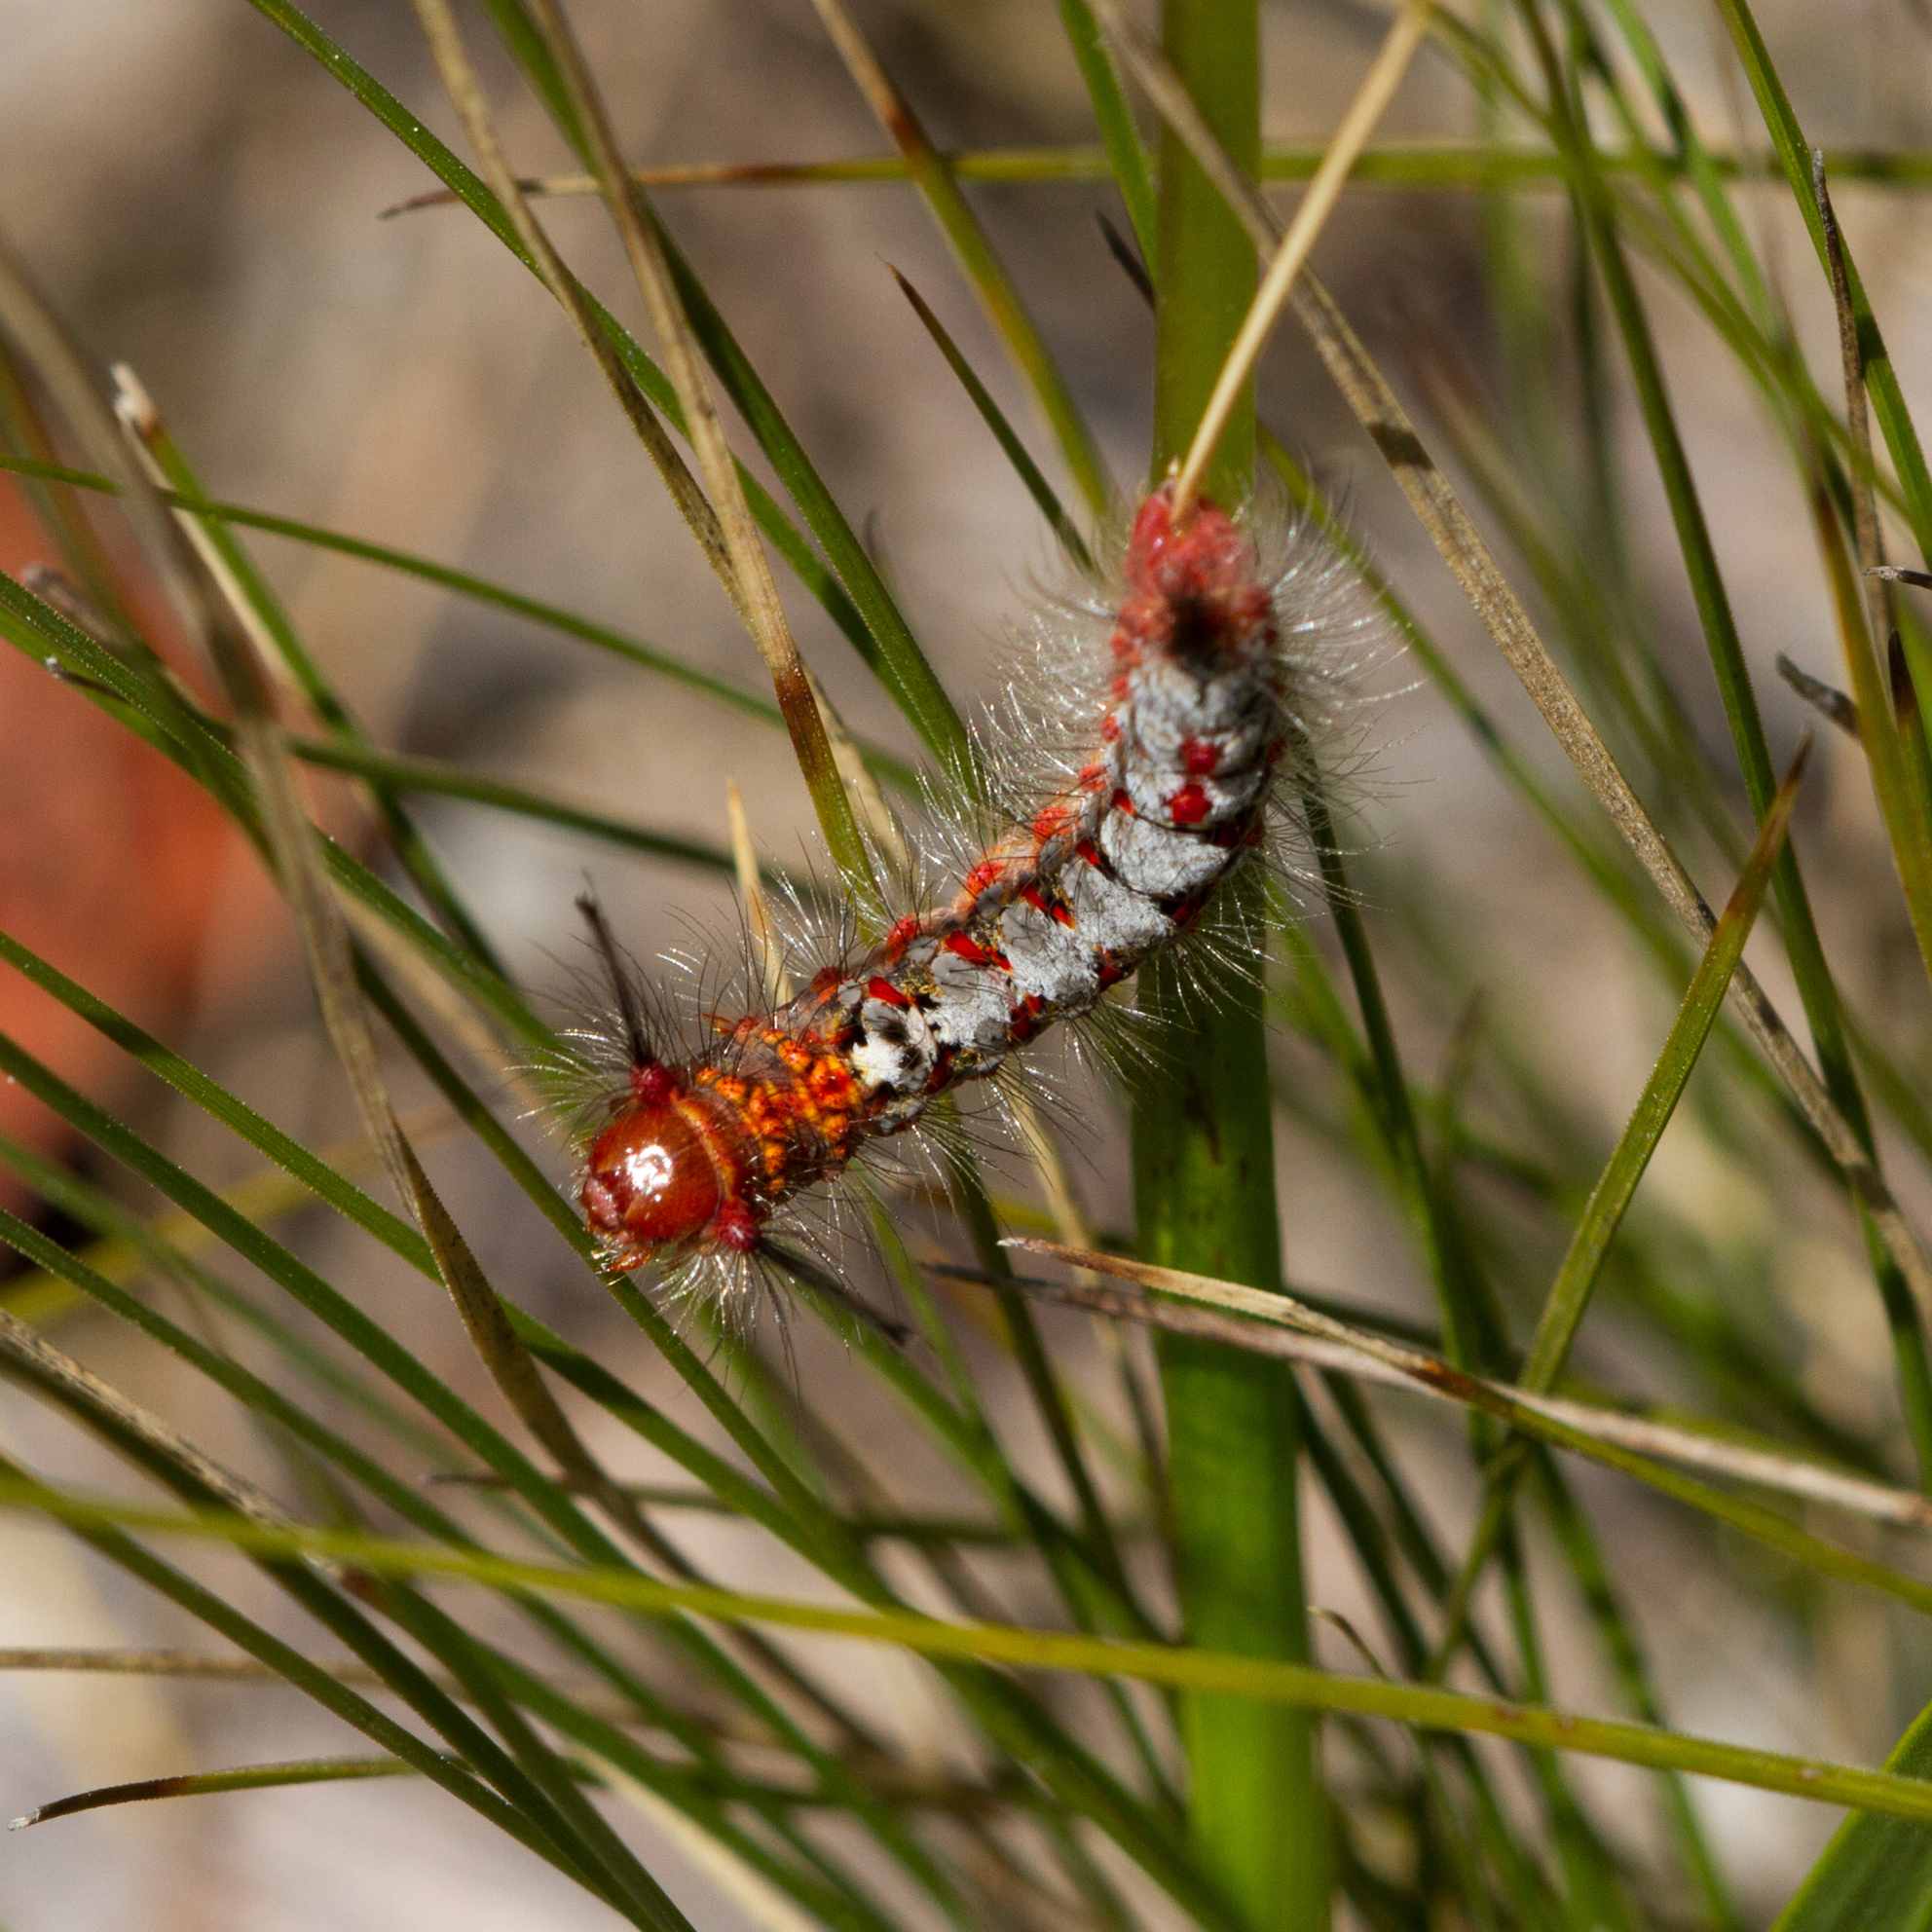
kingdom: Animalia
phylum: Arthropoda
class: Insecta
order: Lepidoptera
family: Erebidae
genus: Acyphas
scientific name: Acyphas semiochrea
